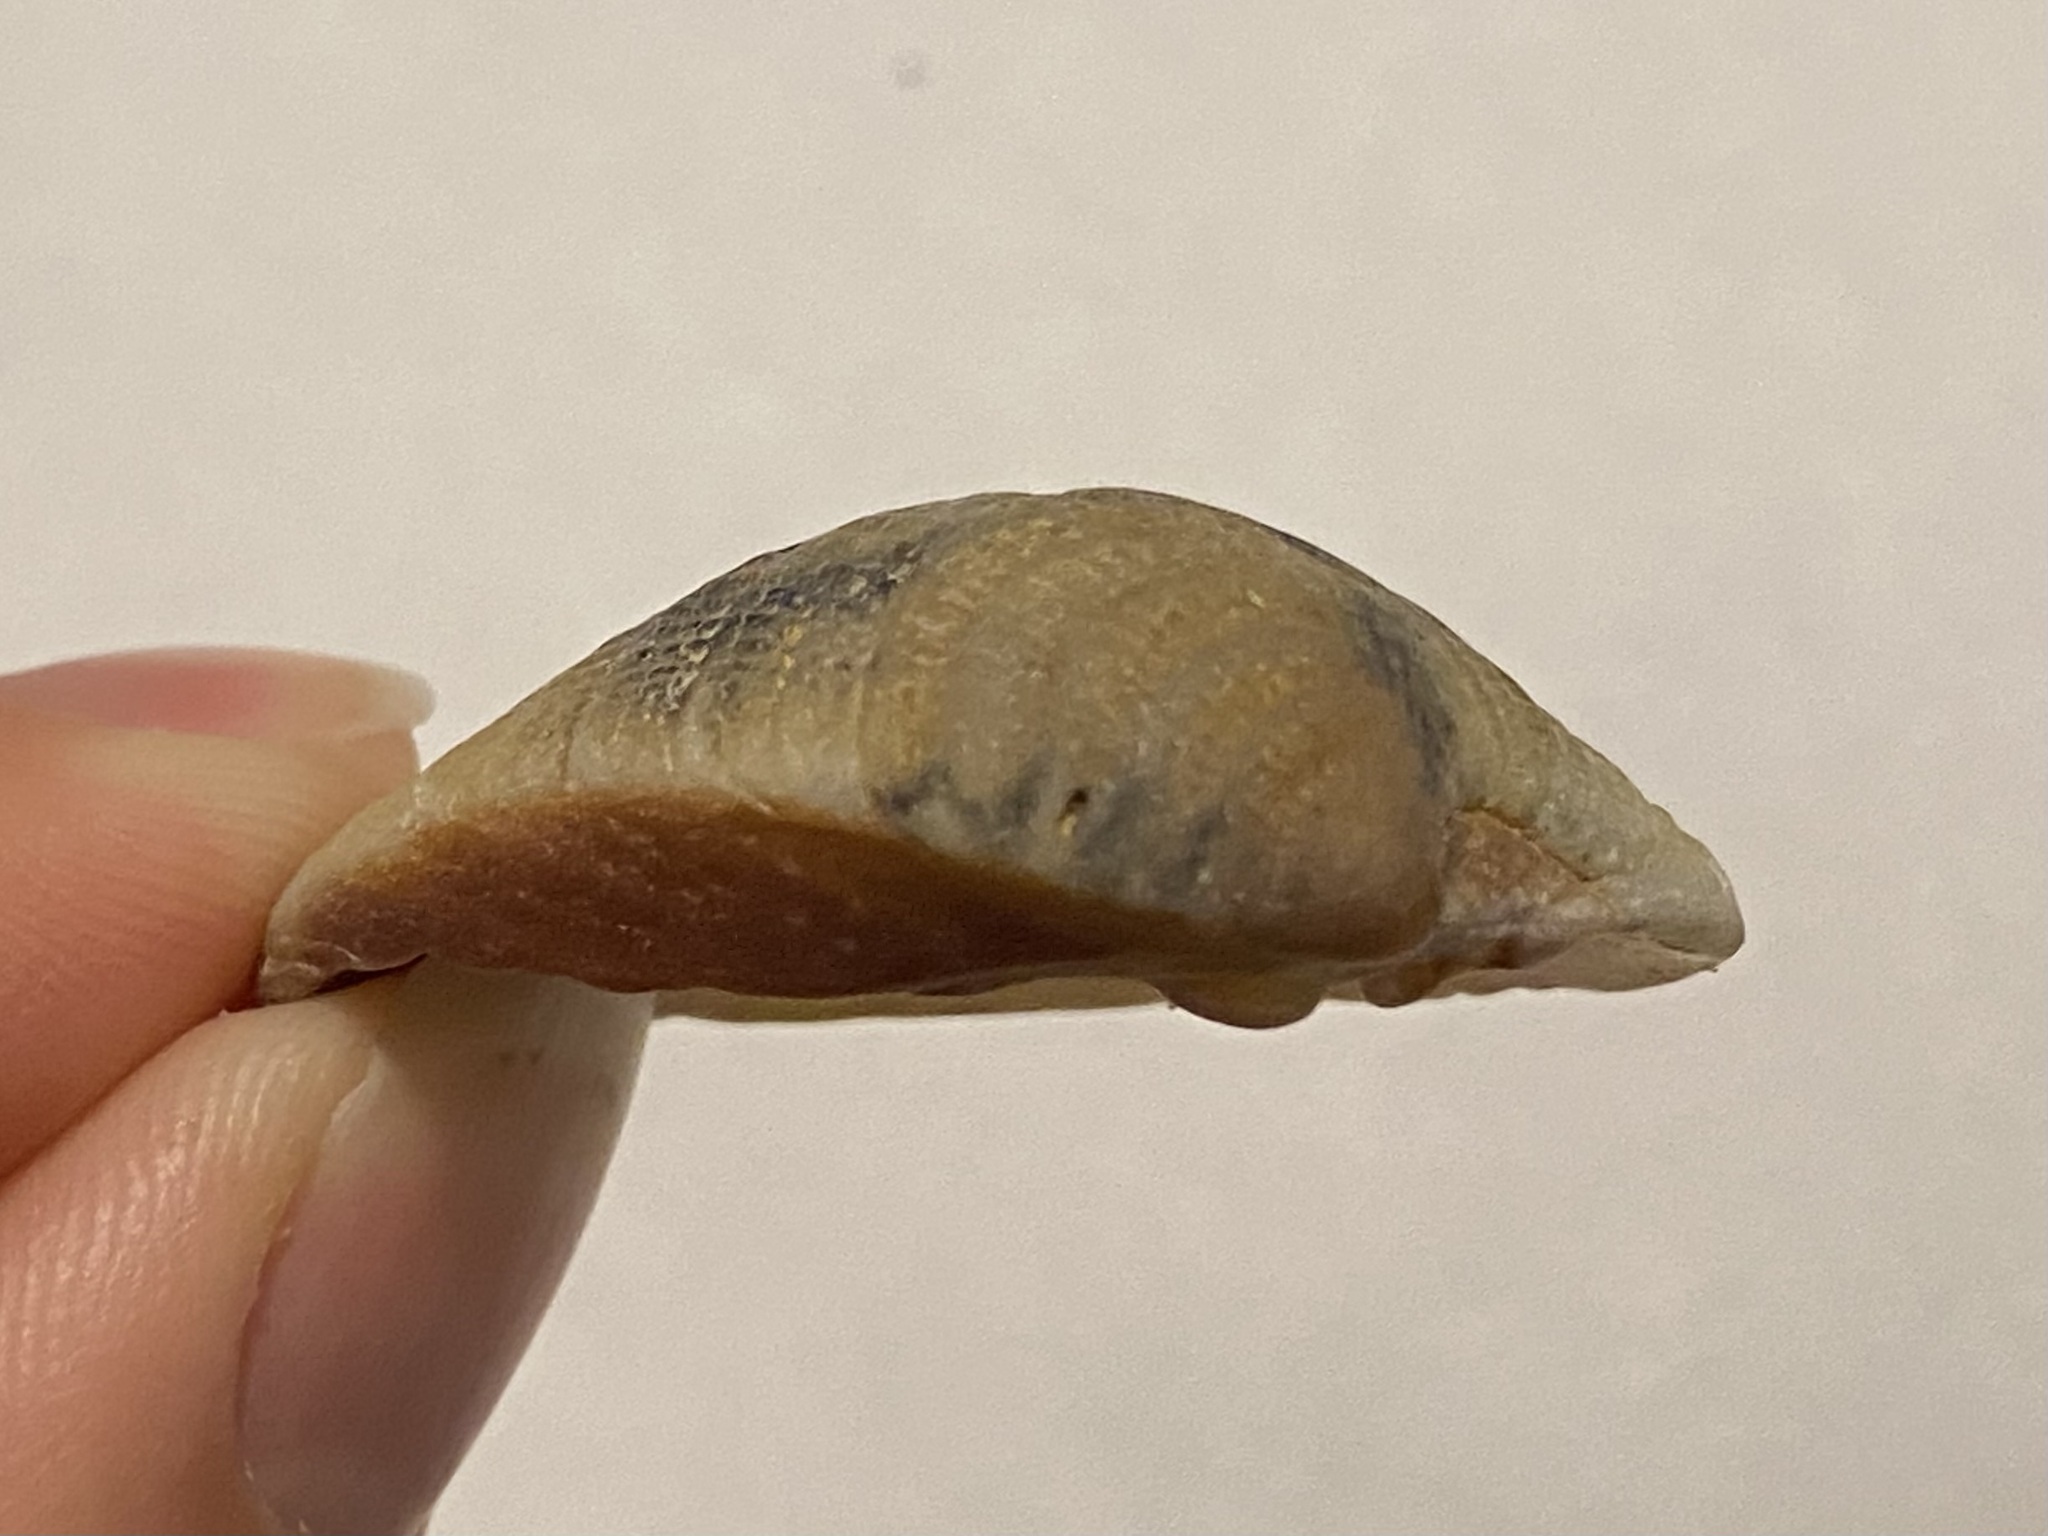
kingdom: Animalia
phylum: Mollusca
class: Bivalvia
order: Venerida
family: Veneridae
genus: Chione
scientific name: Chione elevata
